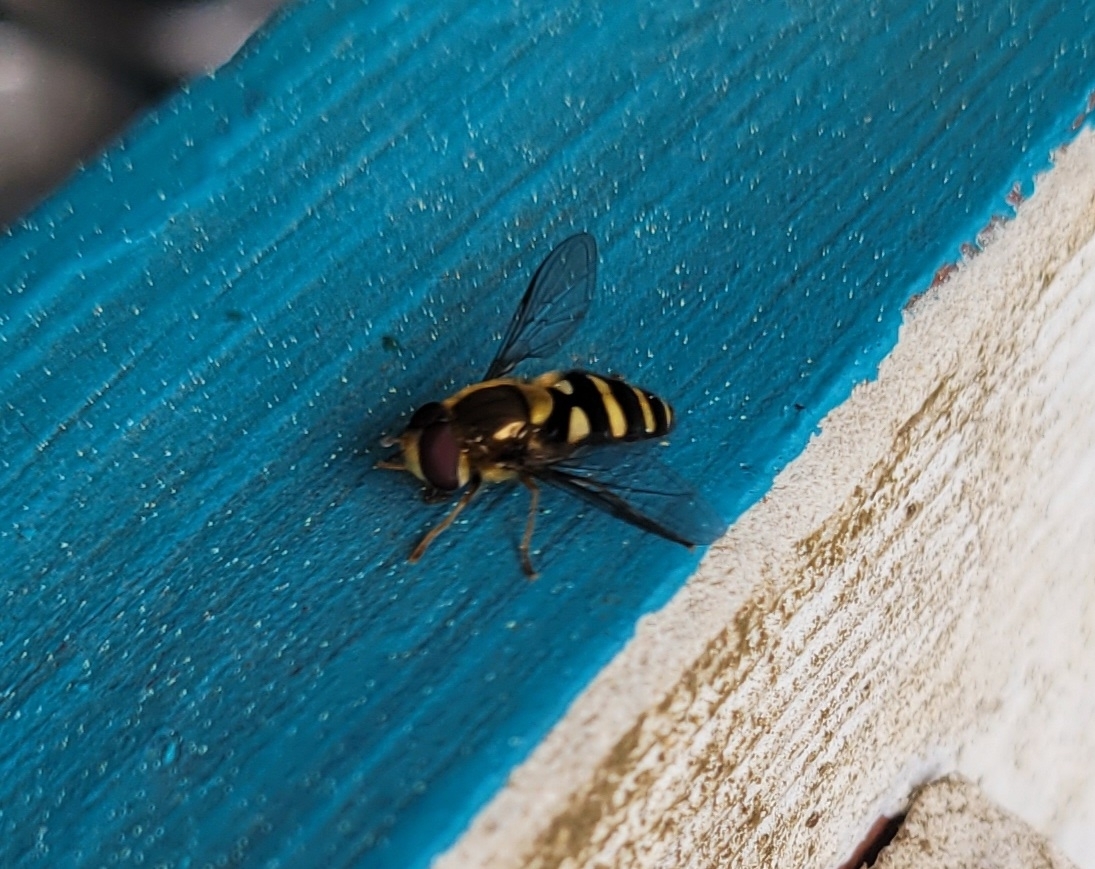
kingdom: Animalia
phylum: Arthropoda
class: Insecta
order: Diptera
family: Syrphidae
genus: Syrphus
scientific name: Syrphus opinator
